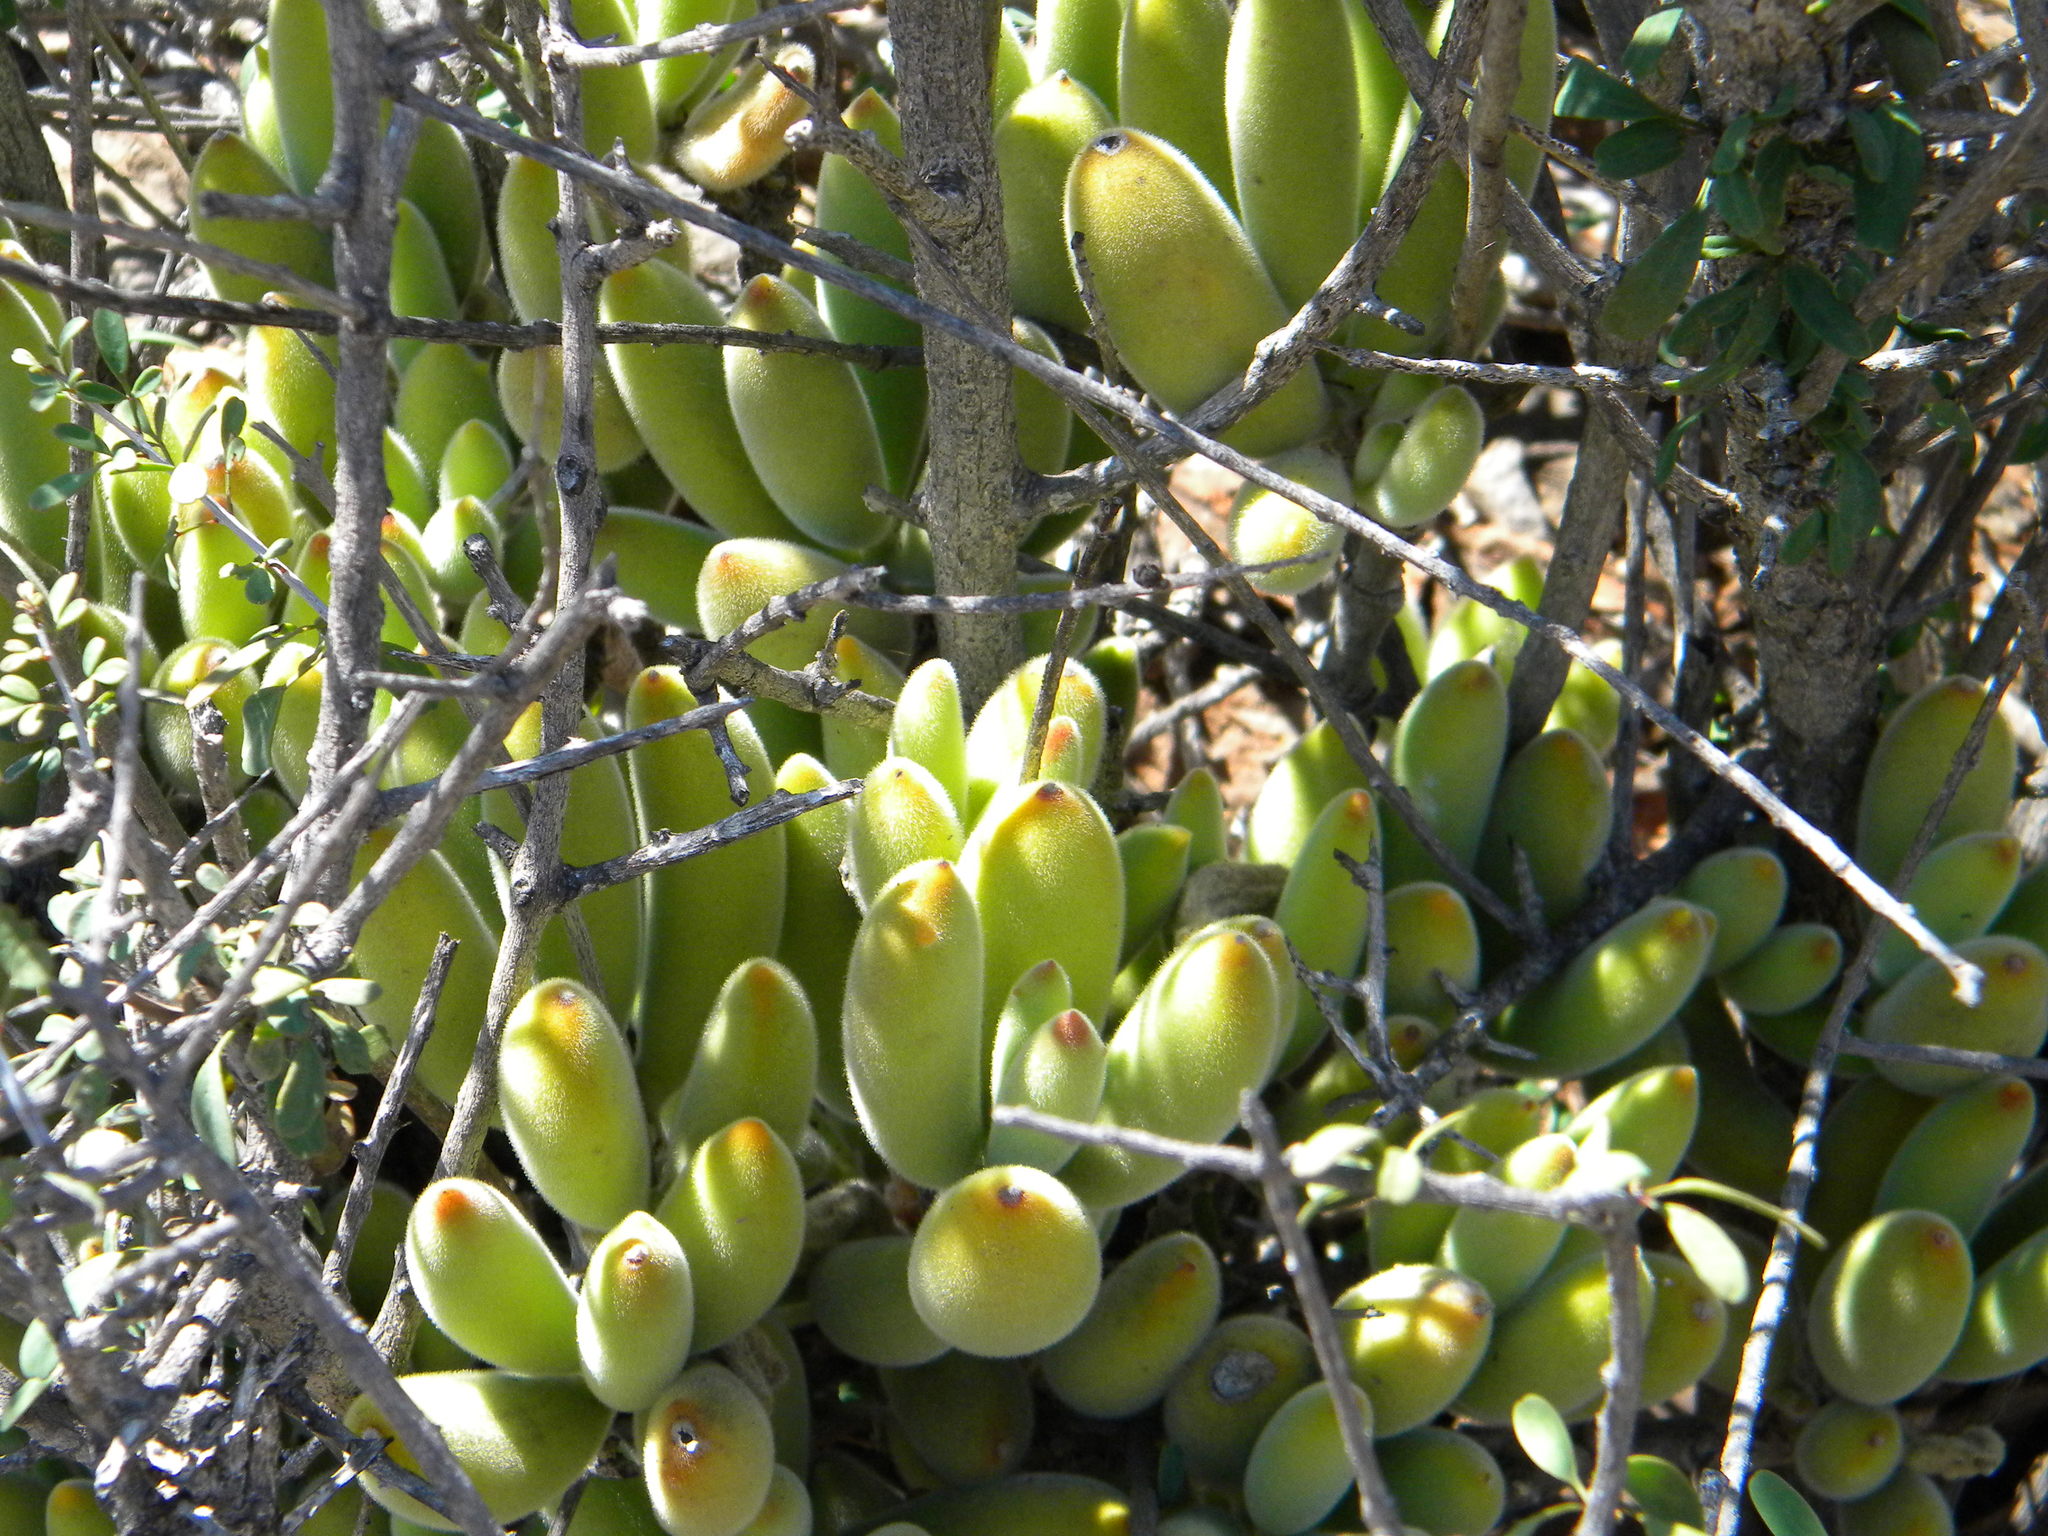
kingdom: Plantae
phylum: Tracheophyta
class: Magnoliopsida
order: Saxifragales
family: Crassulaceae
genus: Cotyledon
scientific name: Cotyledon tomentosa
